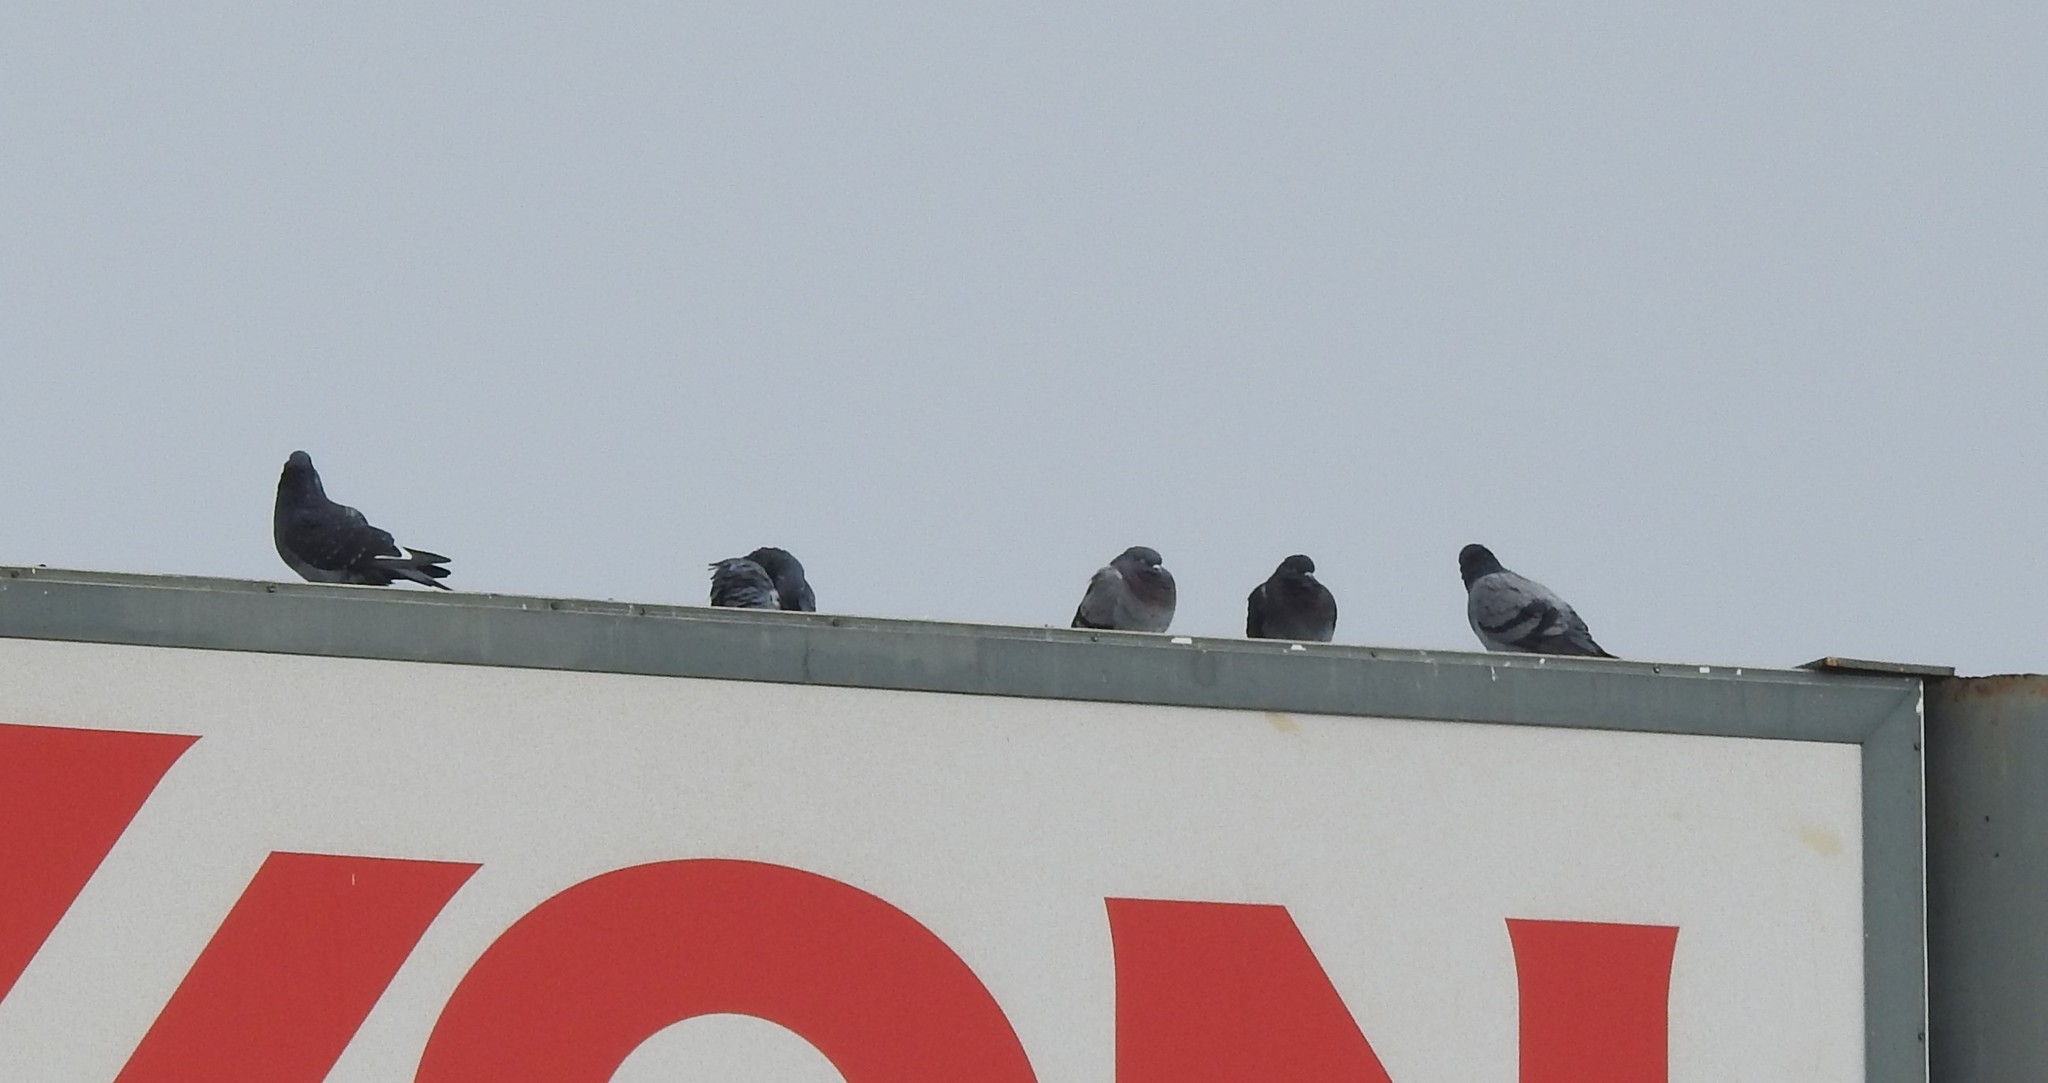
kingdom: Animalia
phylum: Chordata
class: Aves
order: Columbiformes
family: Columbidae
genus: Columba
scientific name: Columba livia
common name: Rock pigeon
